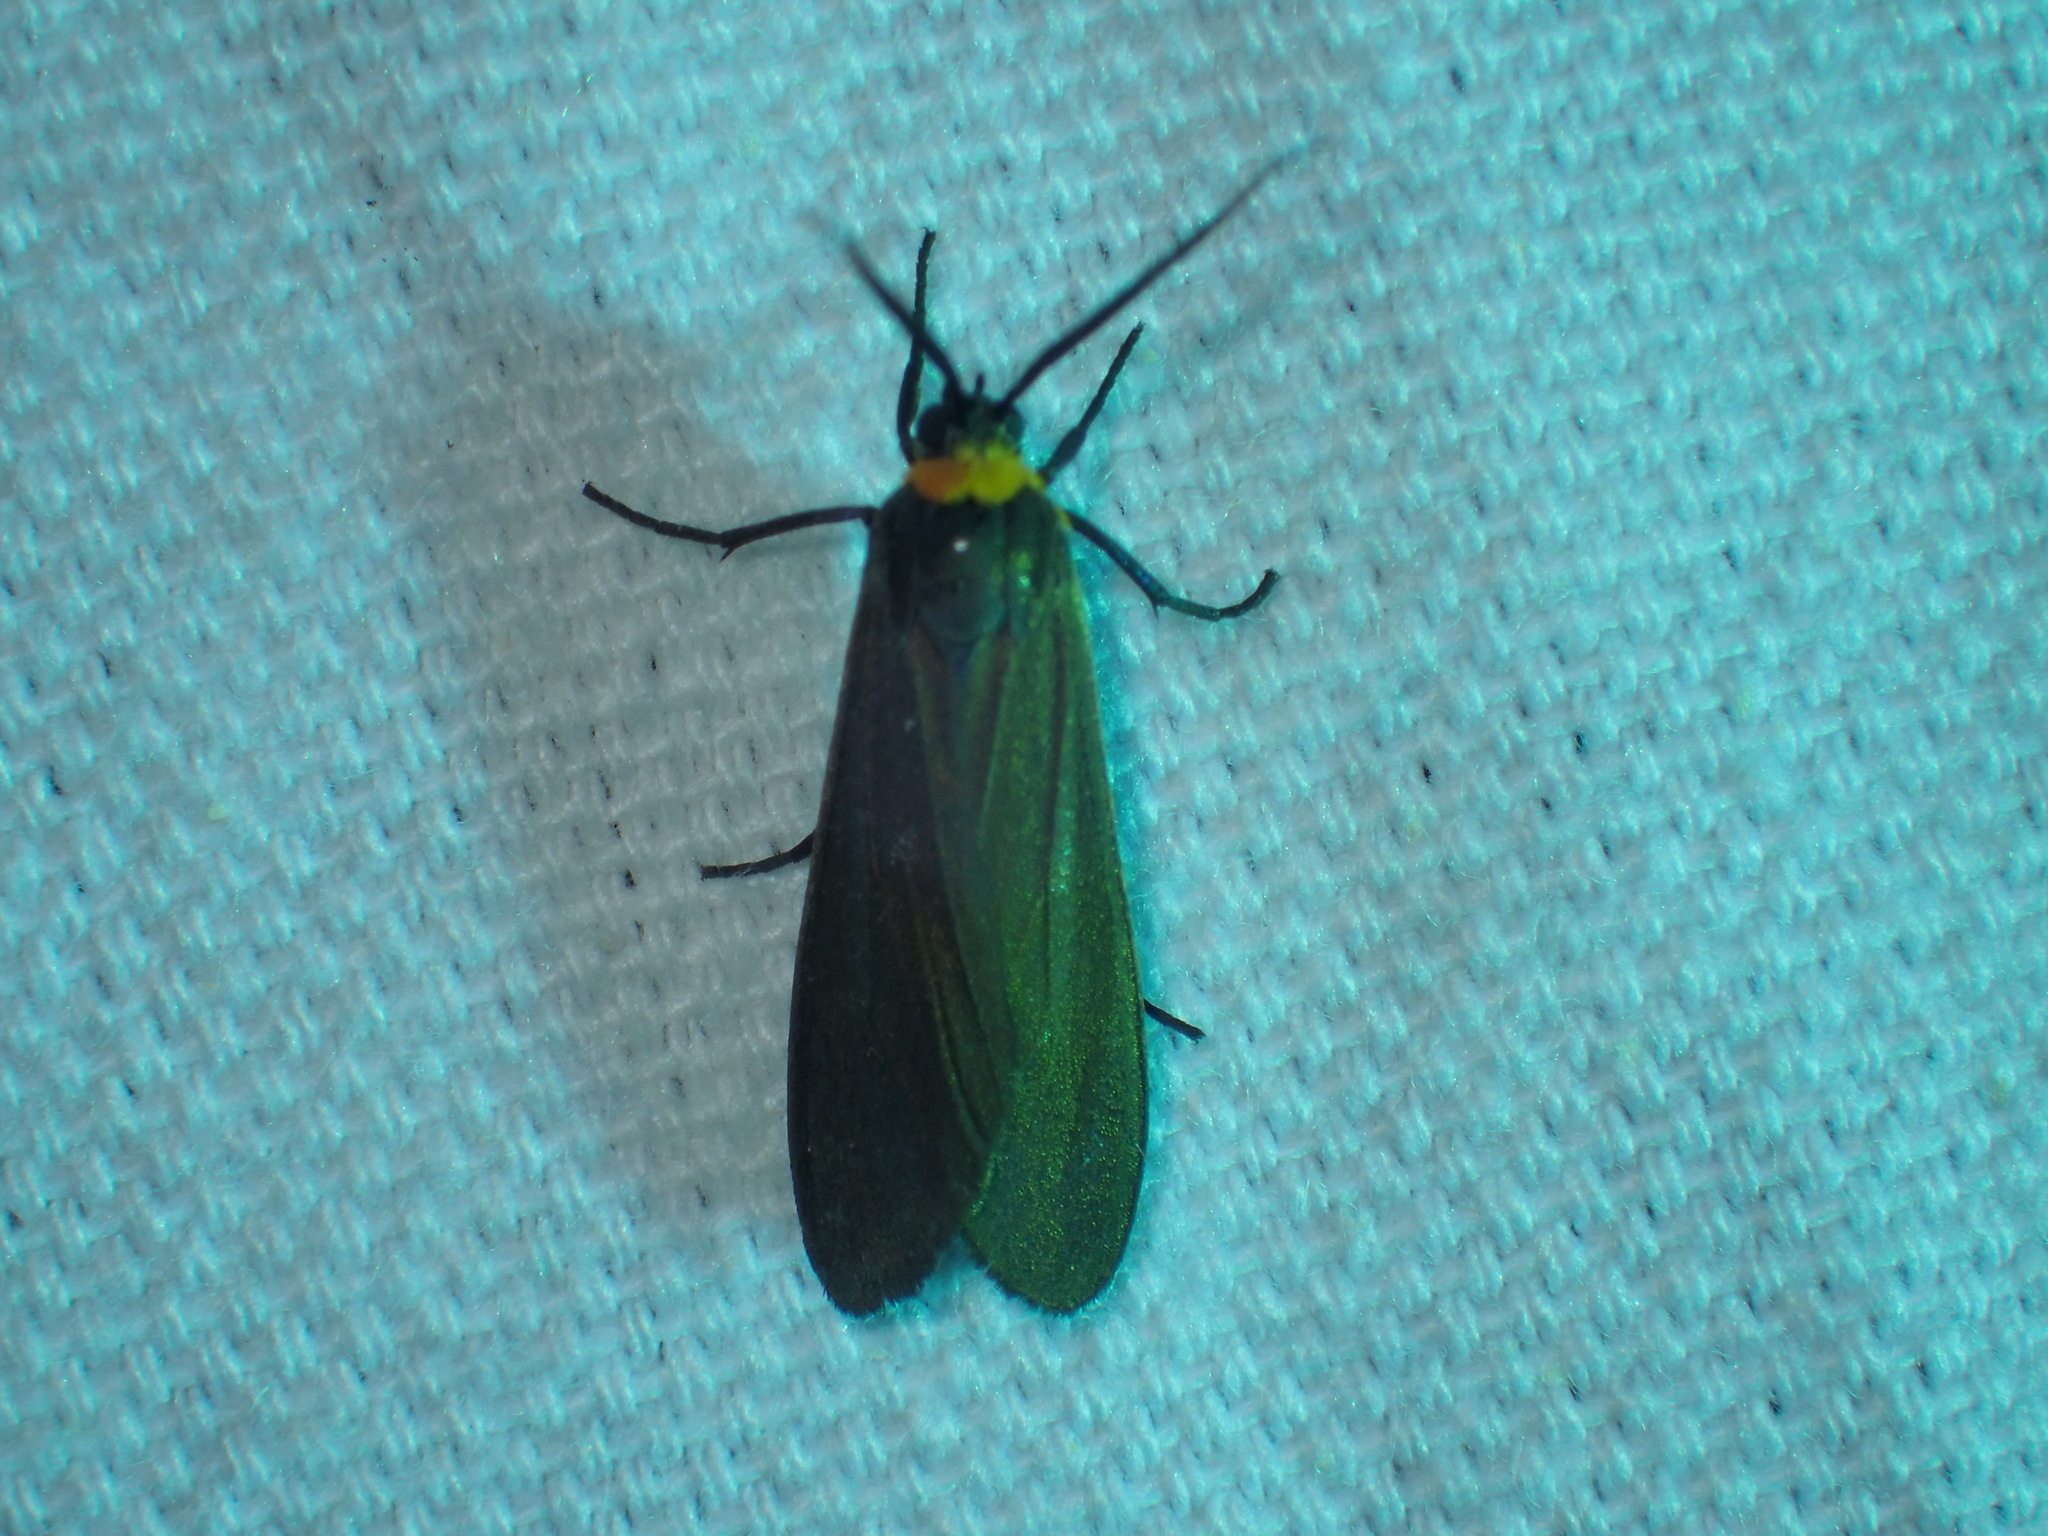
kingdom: Animalia
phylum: Arthropoda
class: Insecta
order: Lepidoptera
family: Erebidae
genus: Cisseps
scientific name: Cisseps fulvicollis
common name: Yellow-collared scape moth
